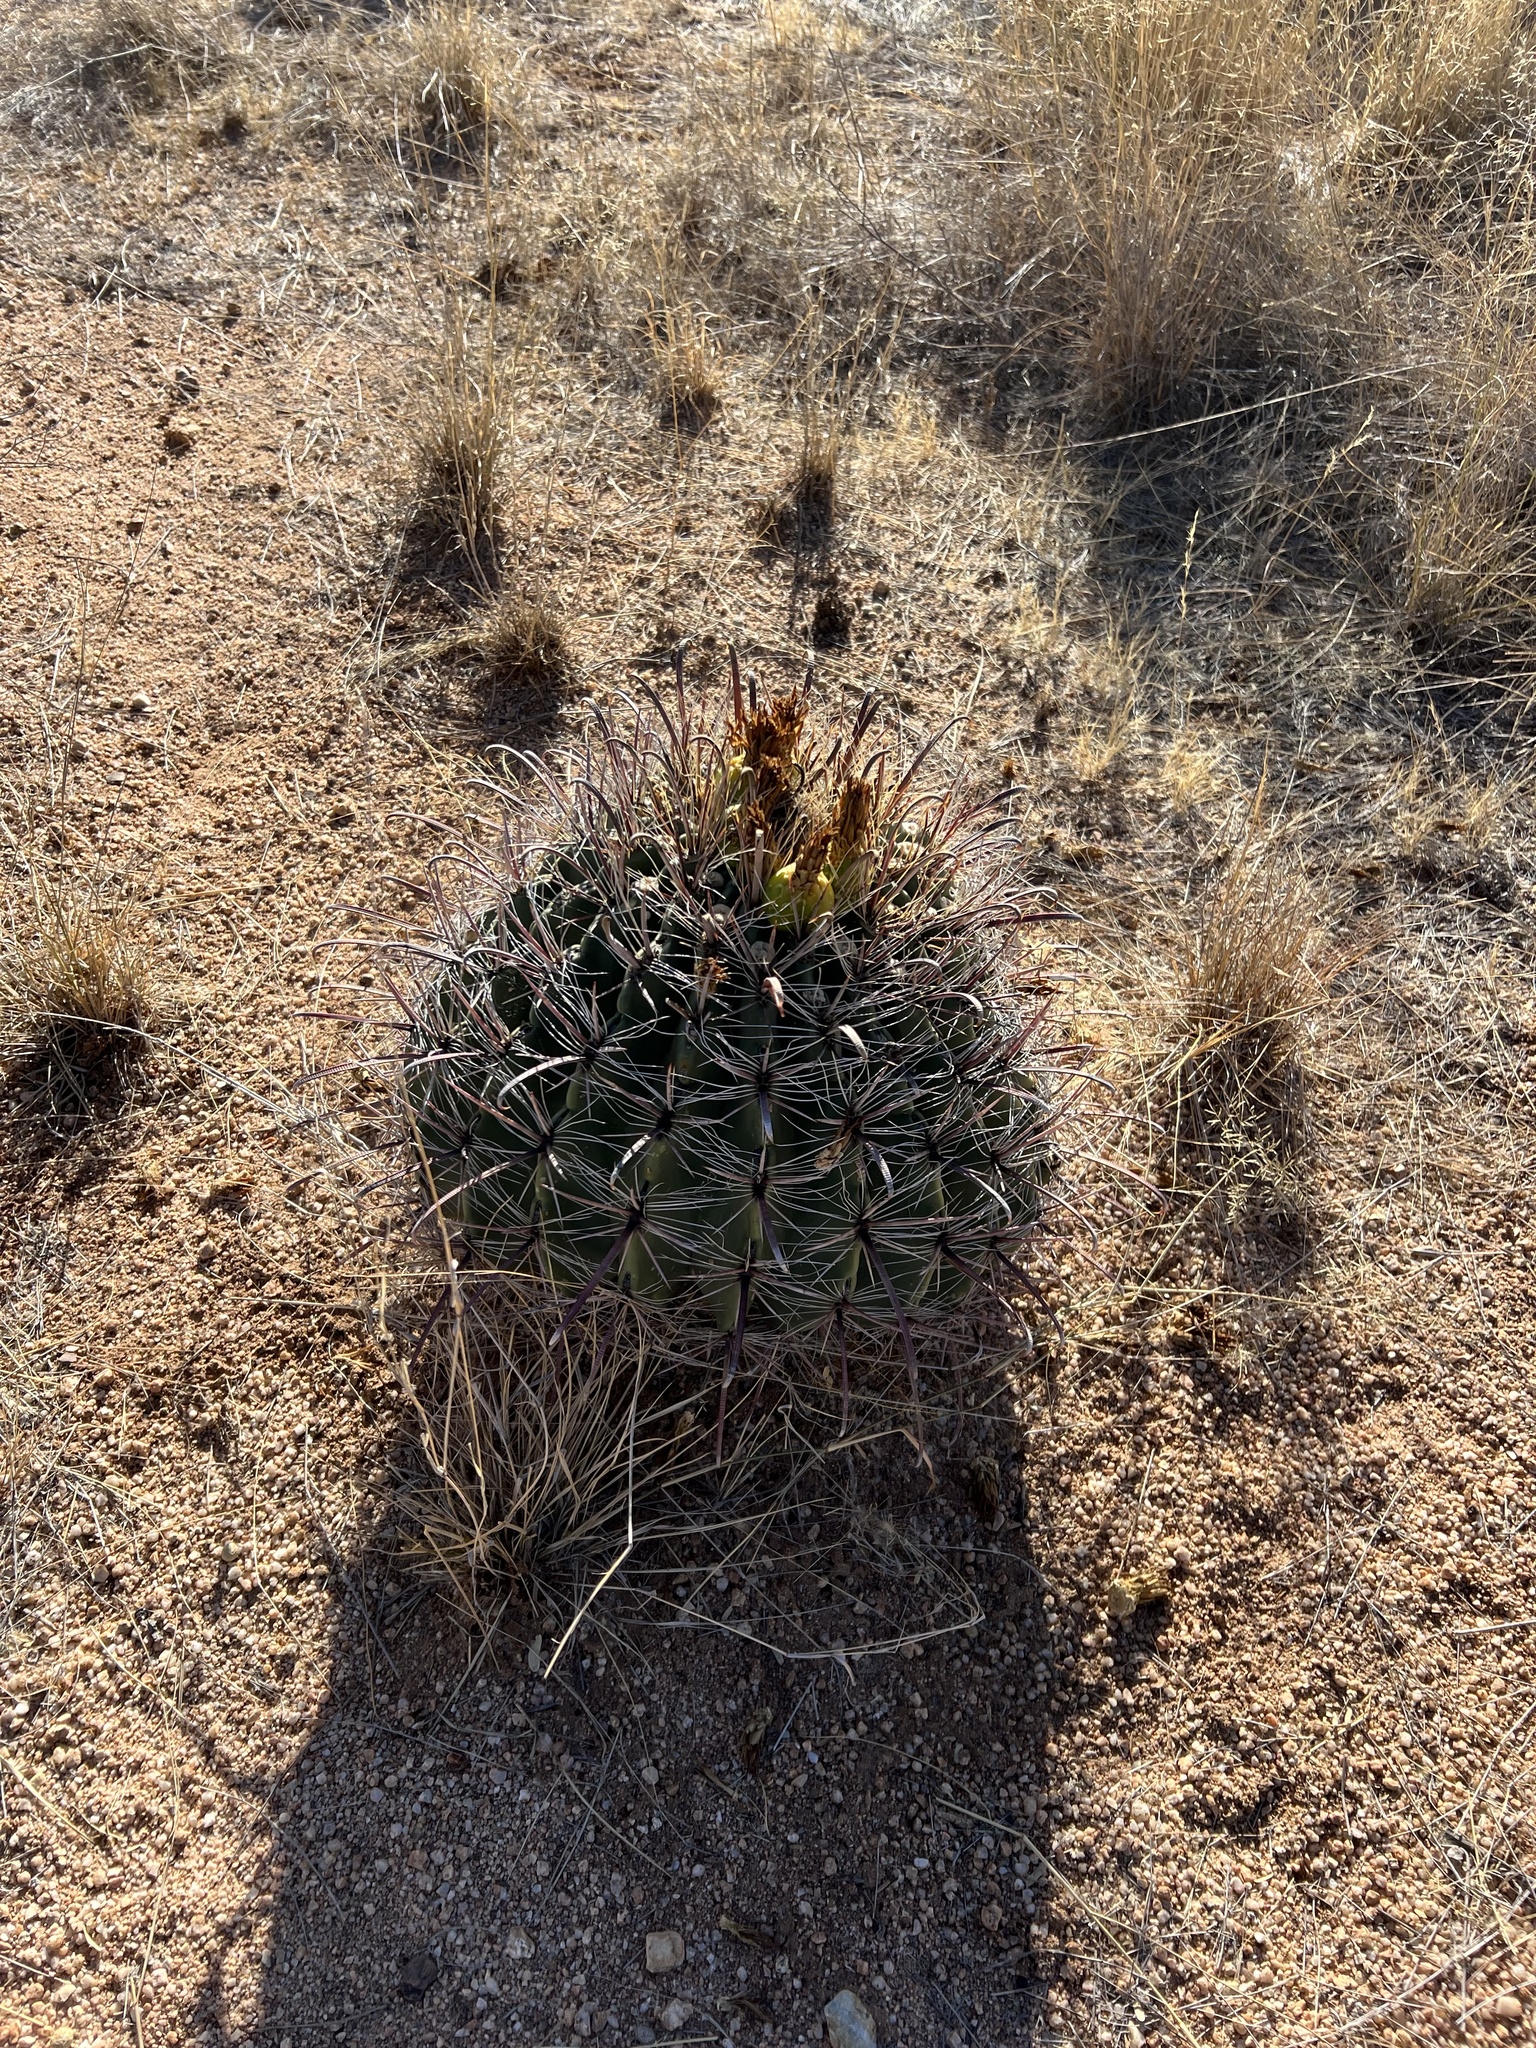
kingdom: Plantae
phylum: Tracheophyta
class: Magnoliopsida
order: Caryophyllales
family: Cactaceae
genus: Ferocactus
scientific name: Ferocactus wislizeni
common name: Candy barrel cactus
